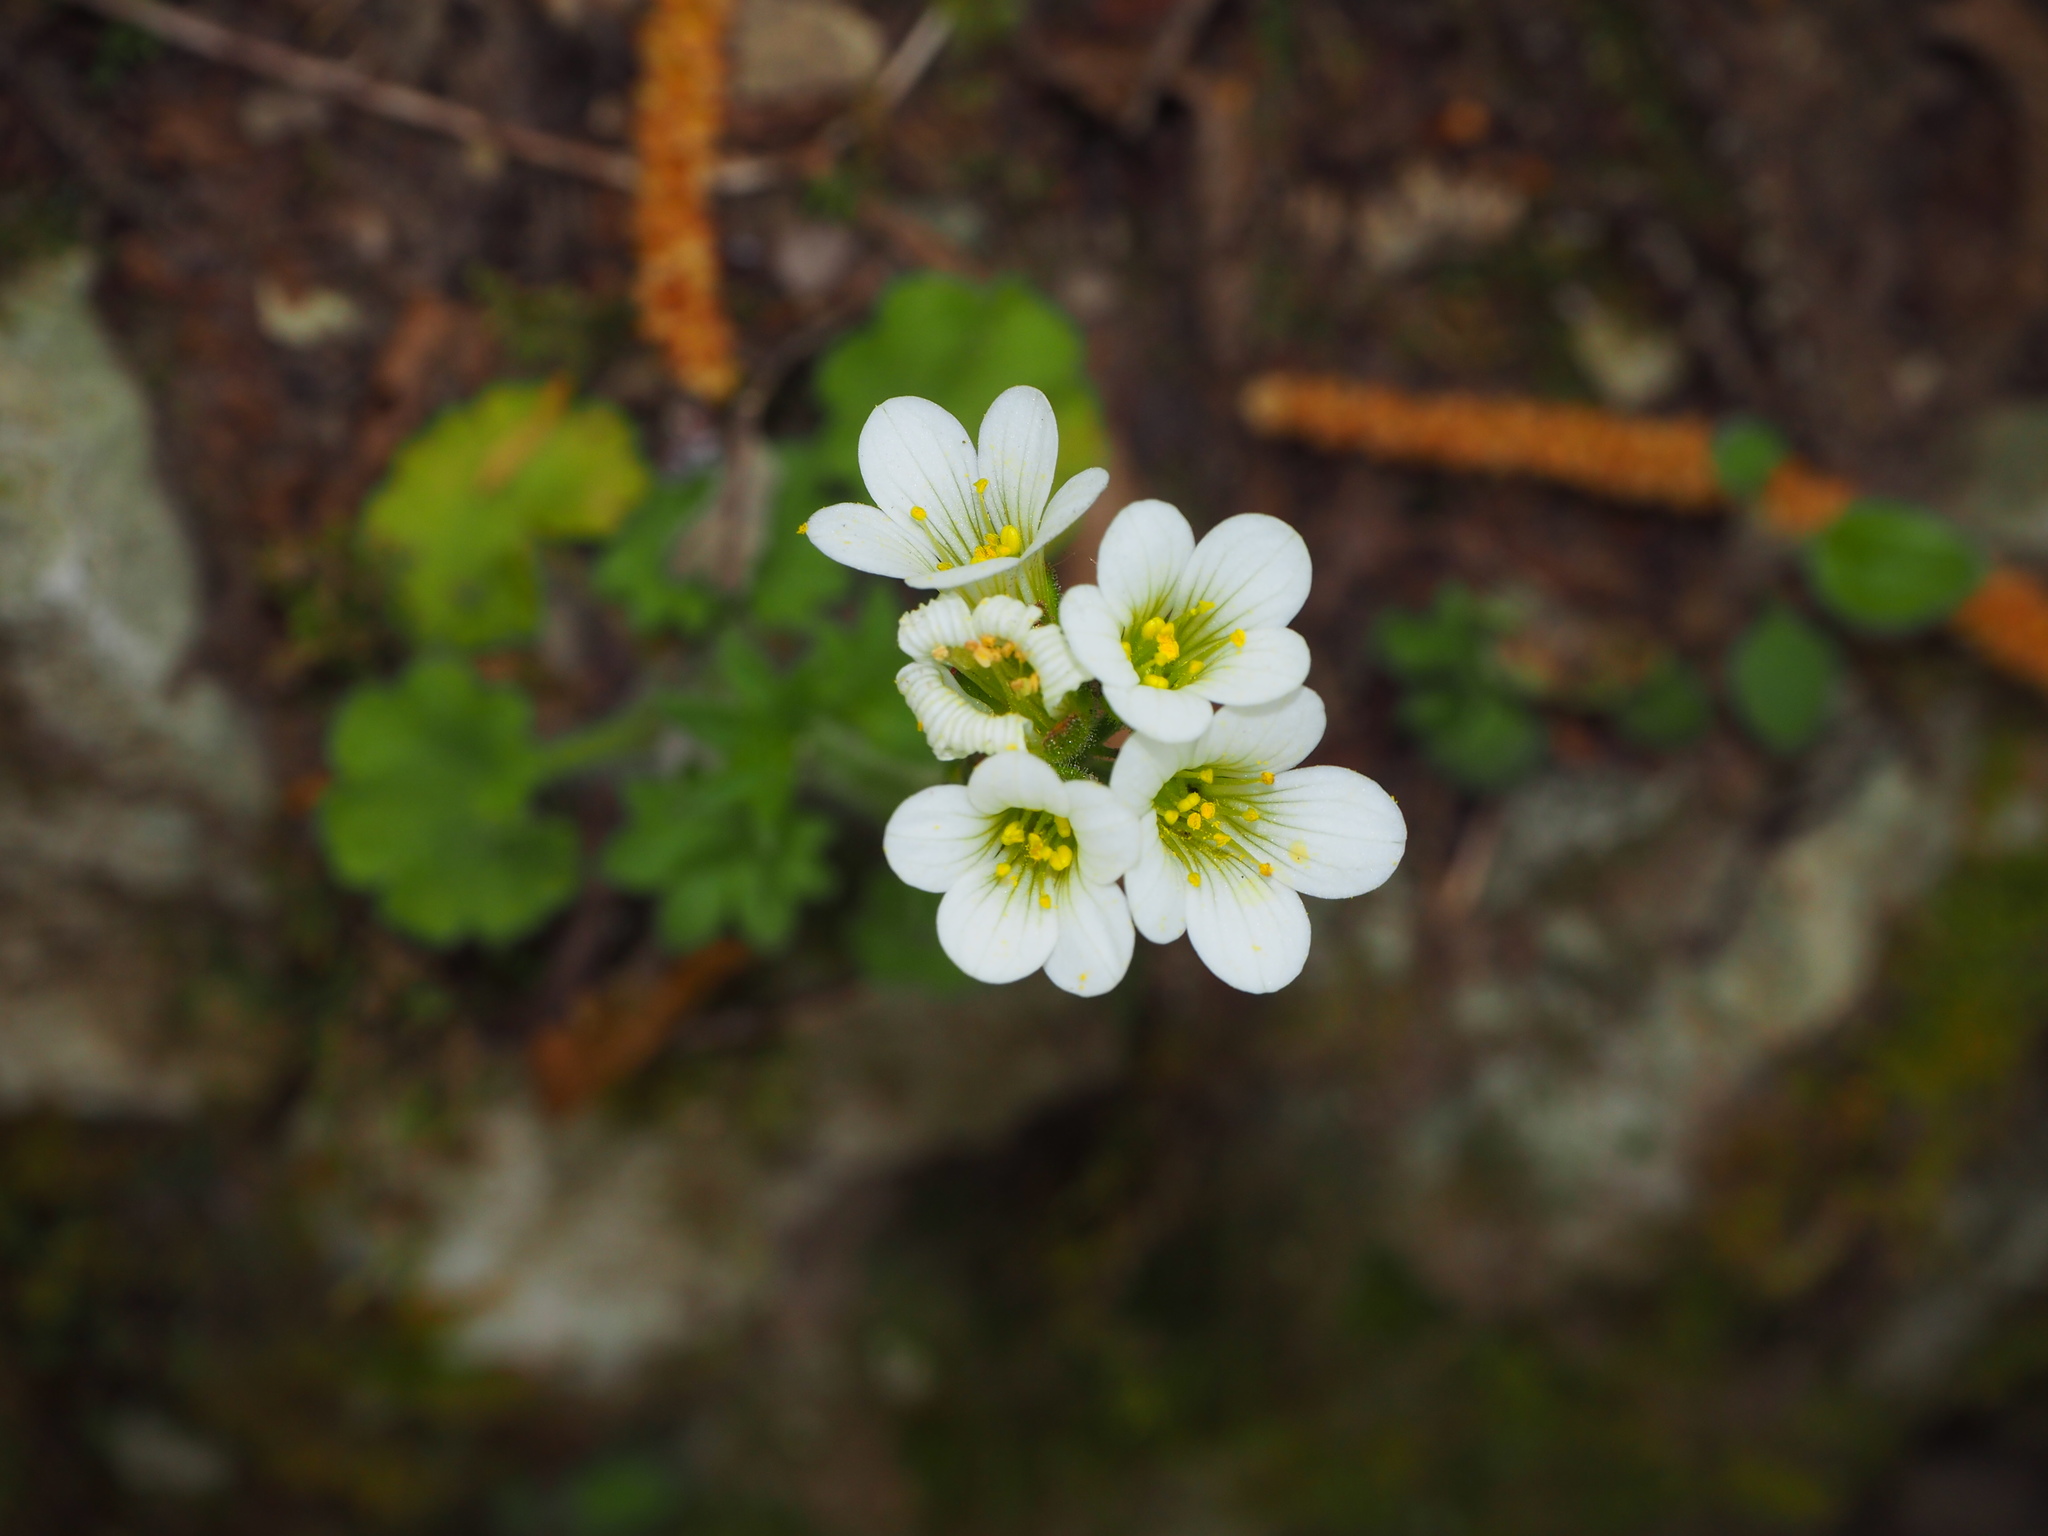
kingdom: Plantae
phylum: Tracheophyta
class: Magnoliopsida
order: Saxifragales
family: Saxifragaceae
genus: Saxifraga
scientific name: Saxifraga granulata
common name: Meadow saxifrage
